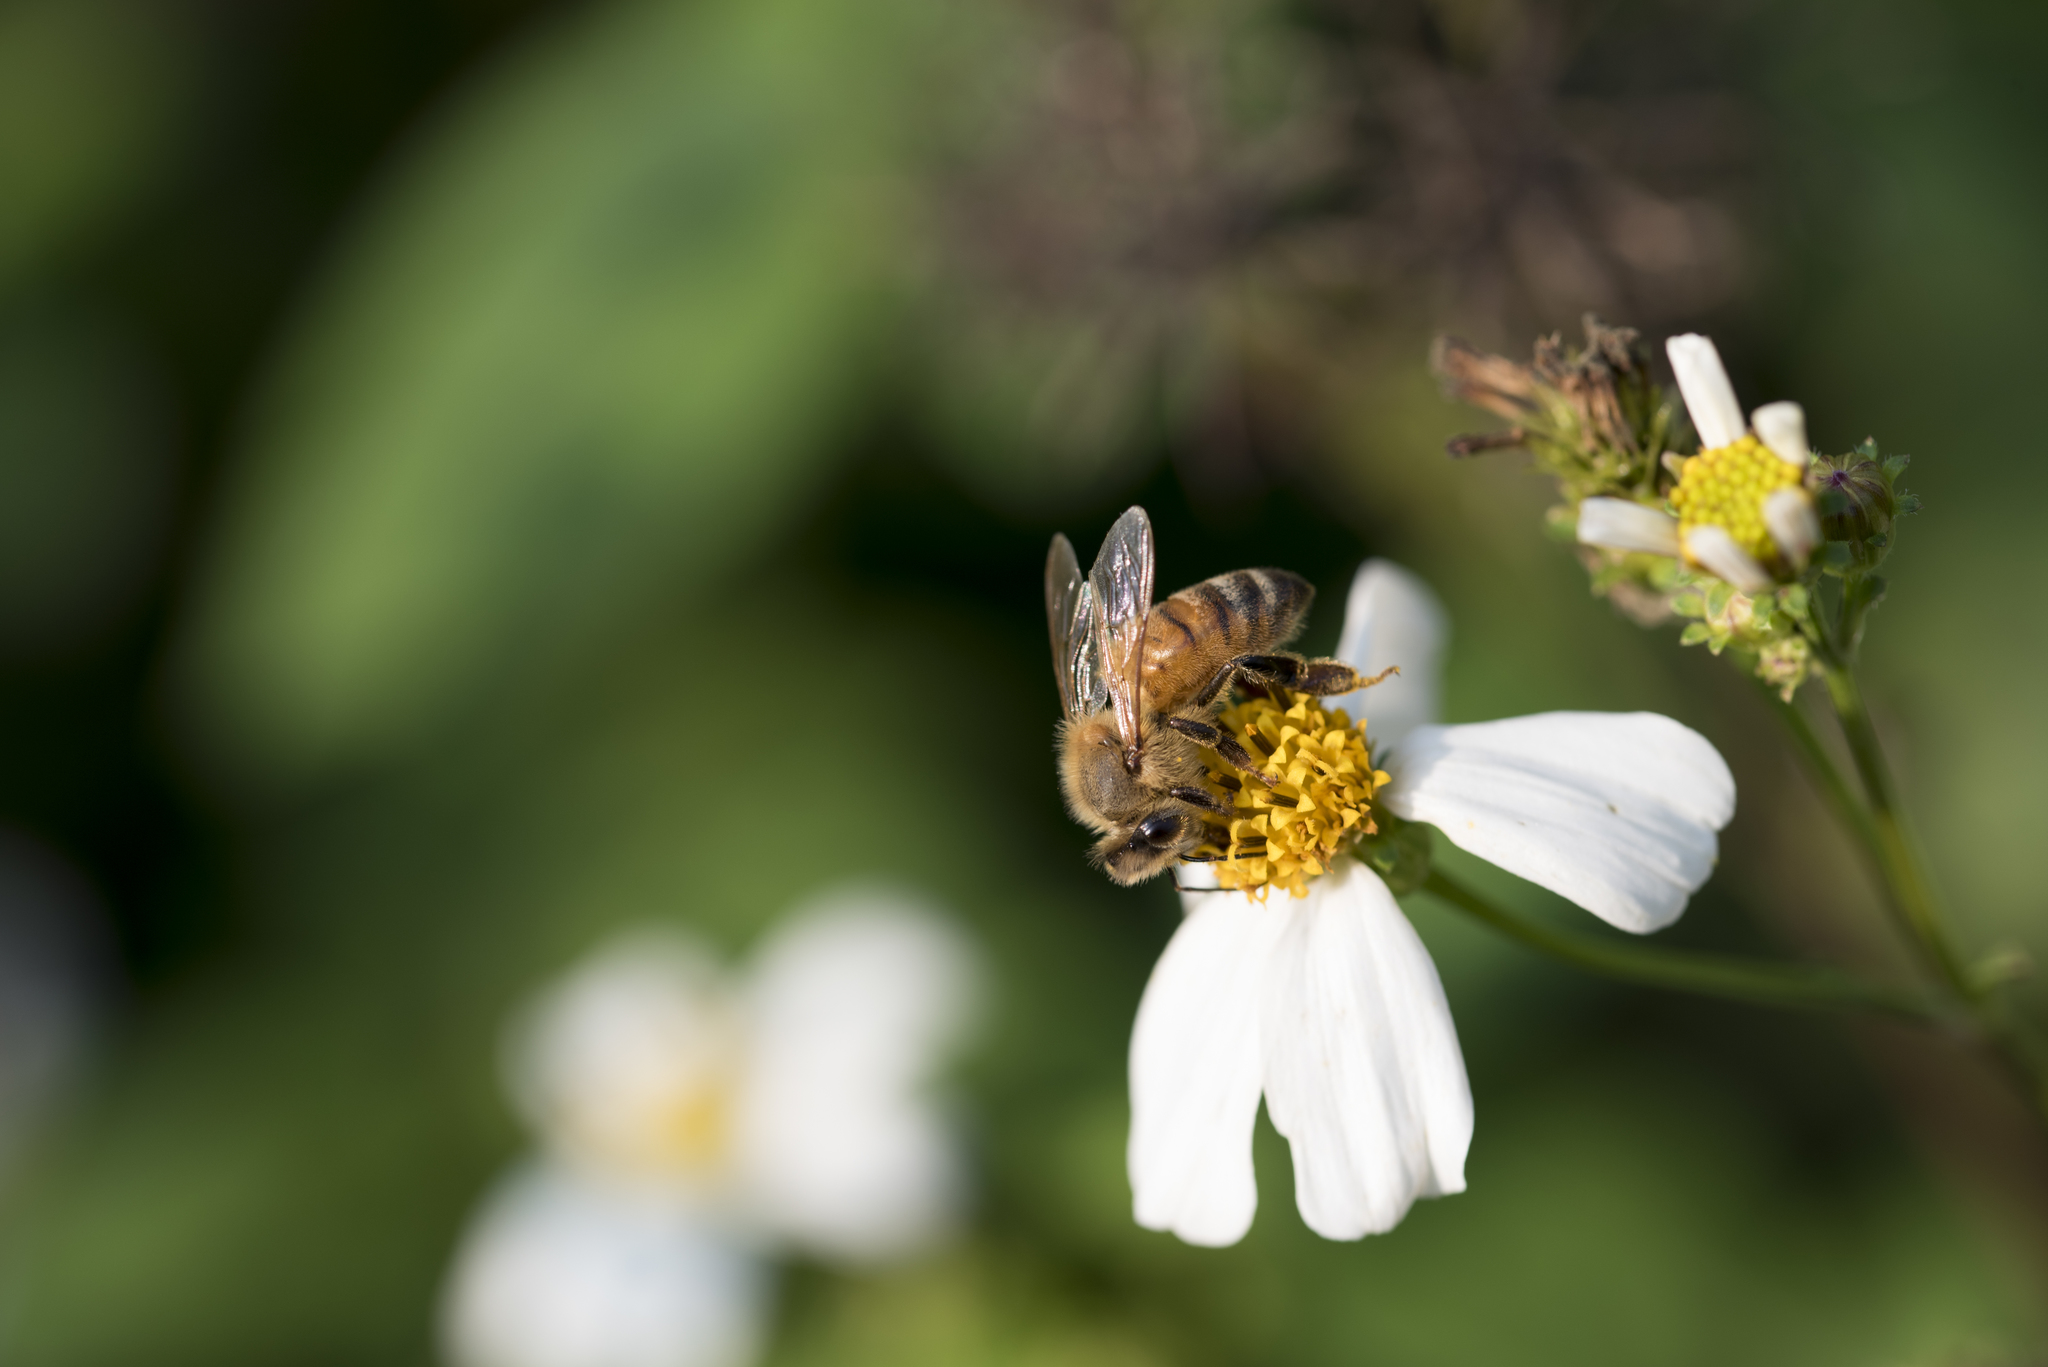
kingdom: Animalia
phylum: Arthropoda
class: Insecta
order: Hymenoptera
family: Apidae
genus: Apis
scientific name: Apis mellifera
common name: Honey bee
